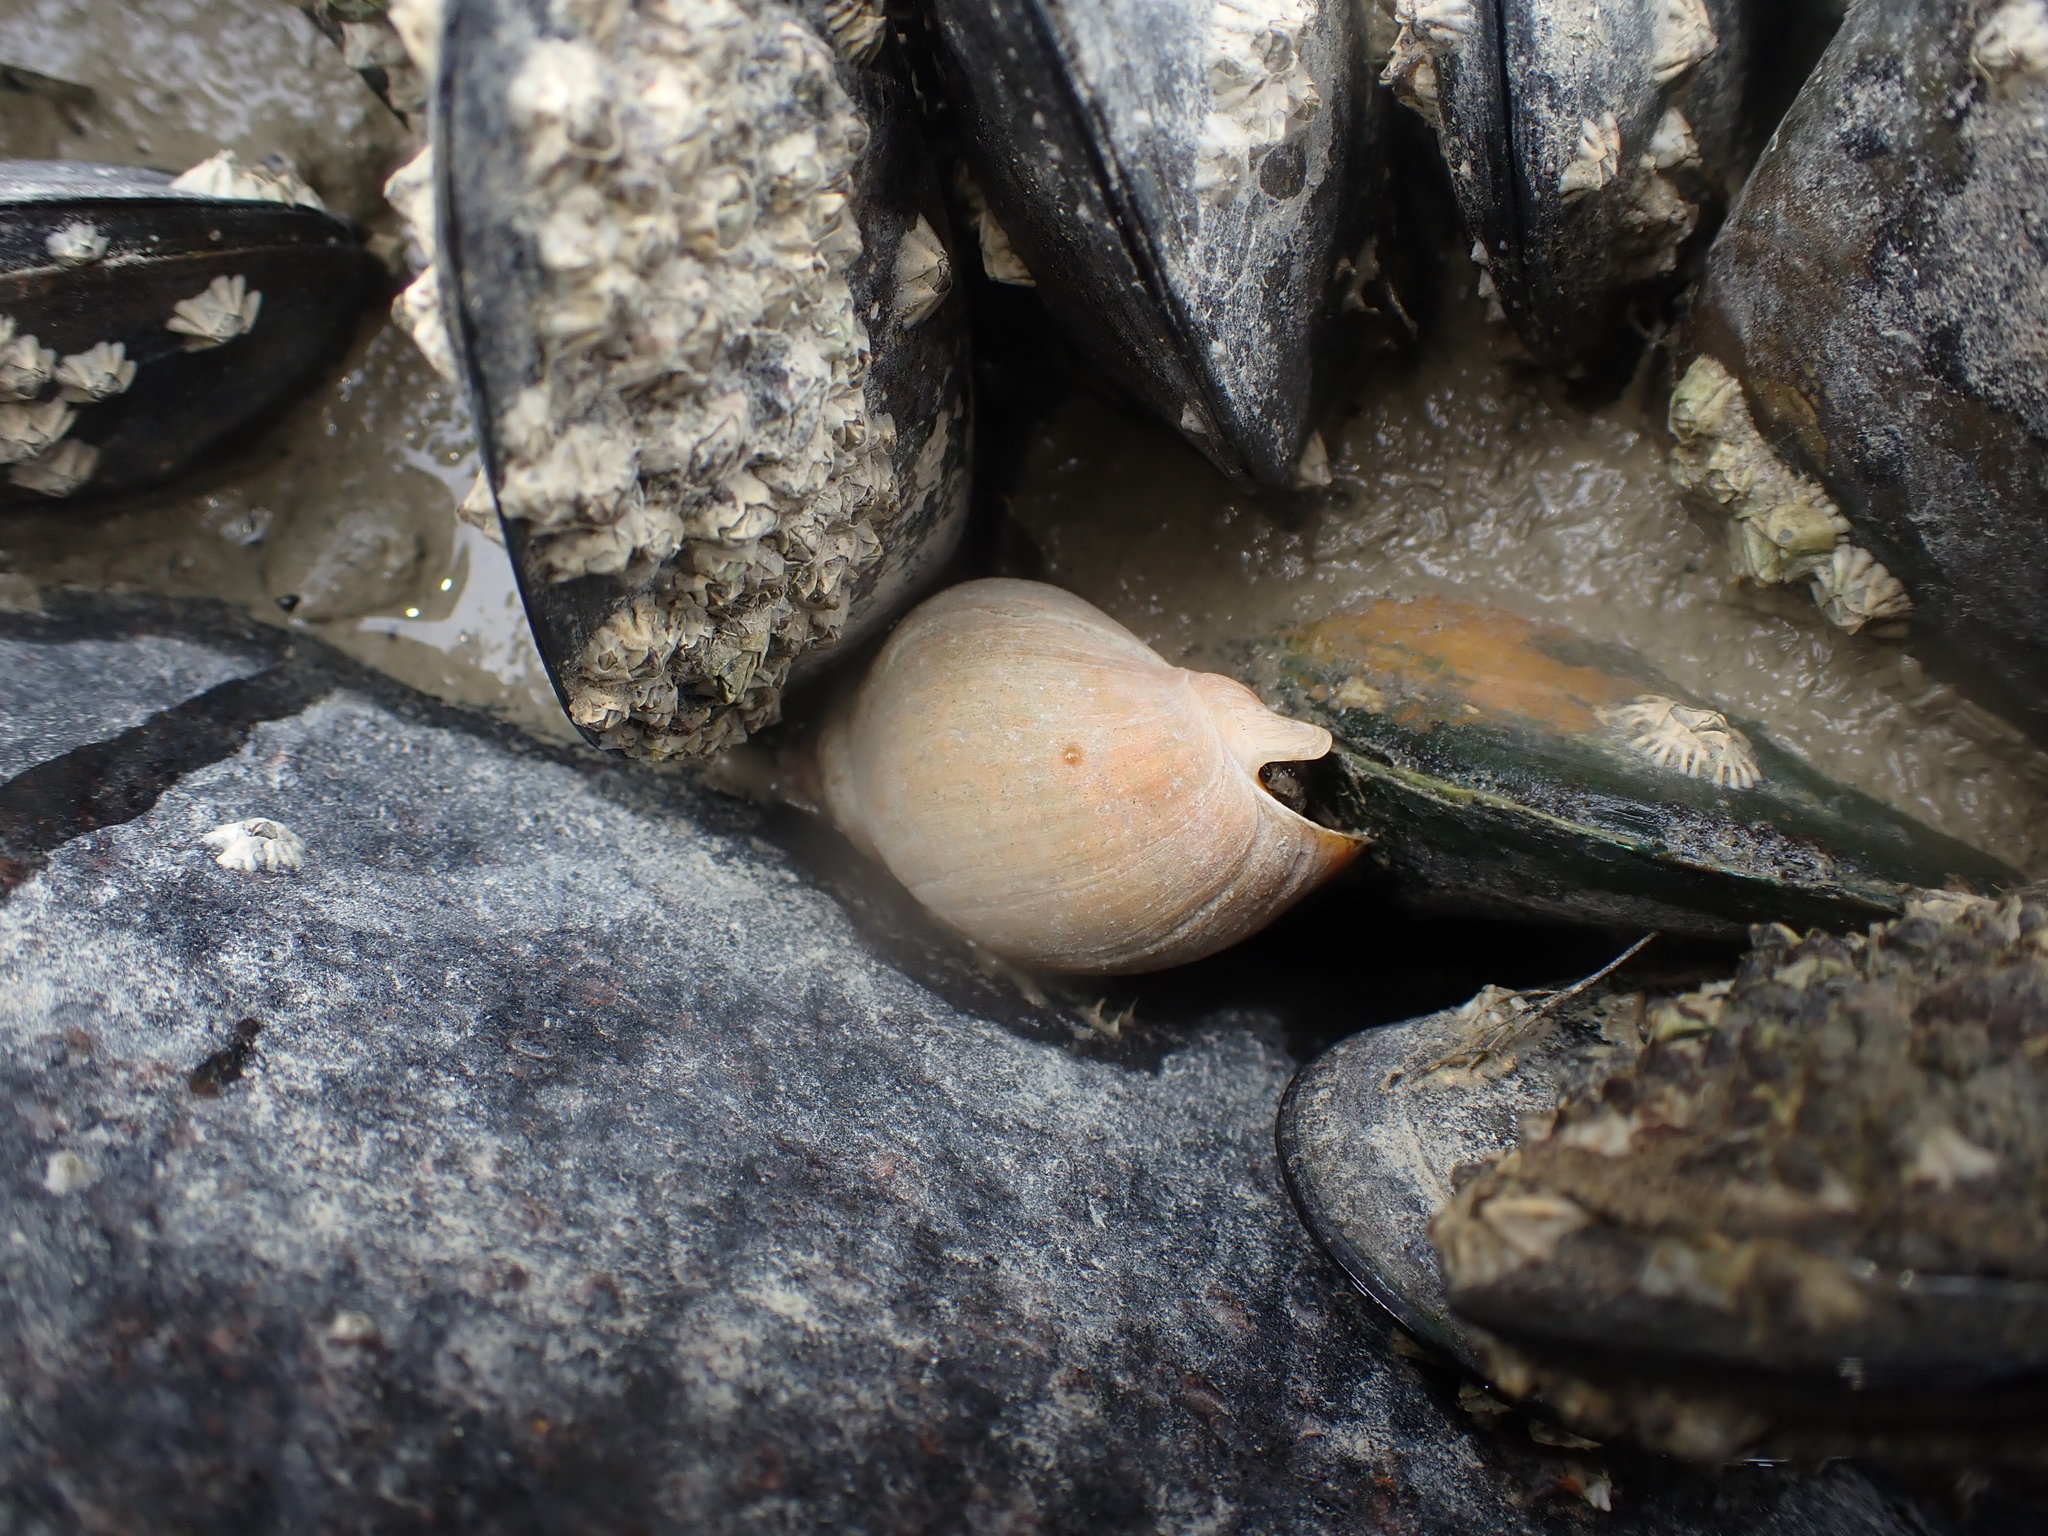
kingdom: Animalia
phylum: Mollusca
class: Gastropoda
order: Neogastropoda
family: Cominellidae
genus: Cominella
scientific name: Cominella adspersa
